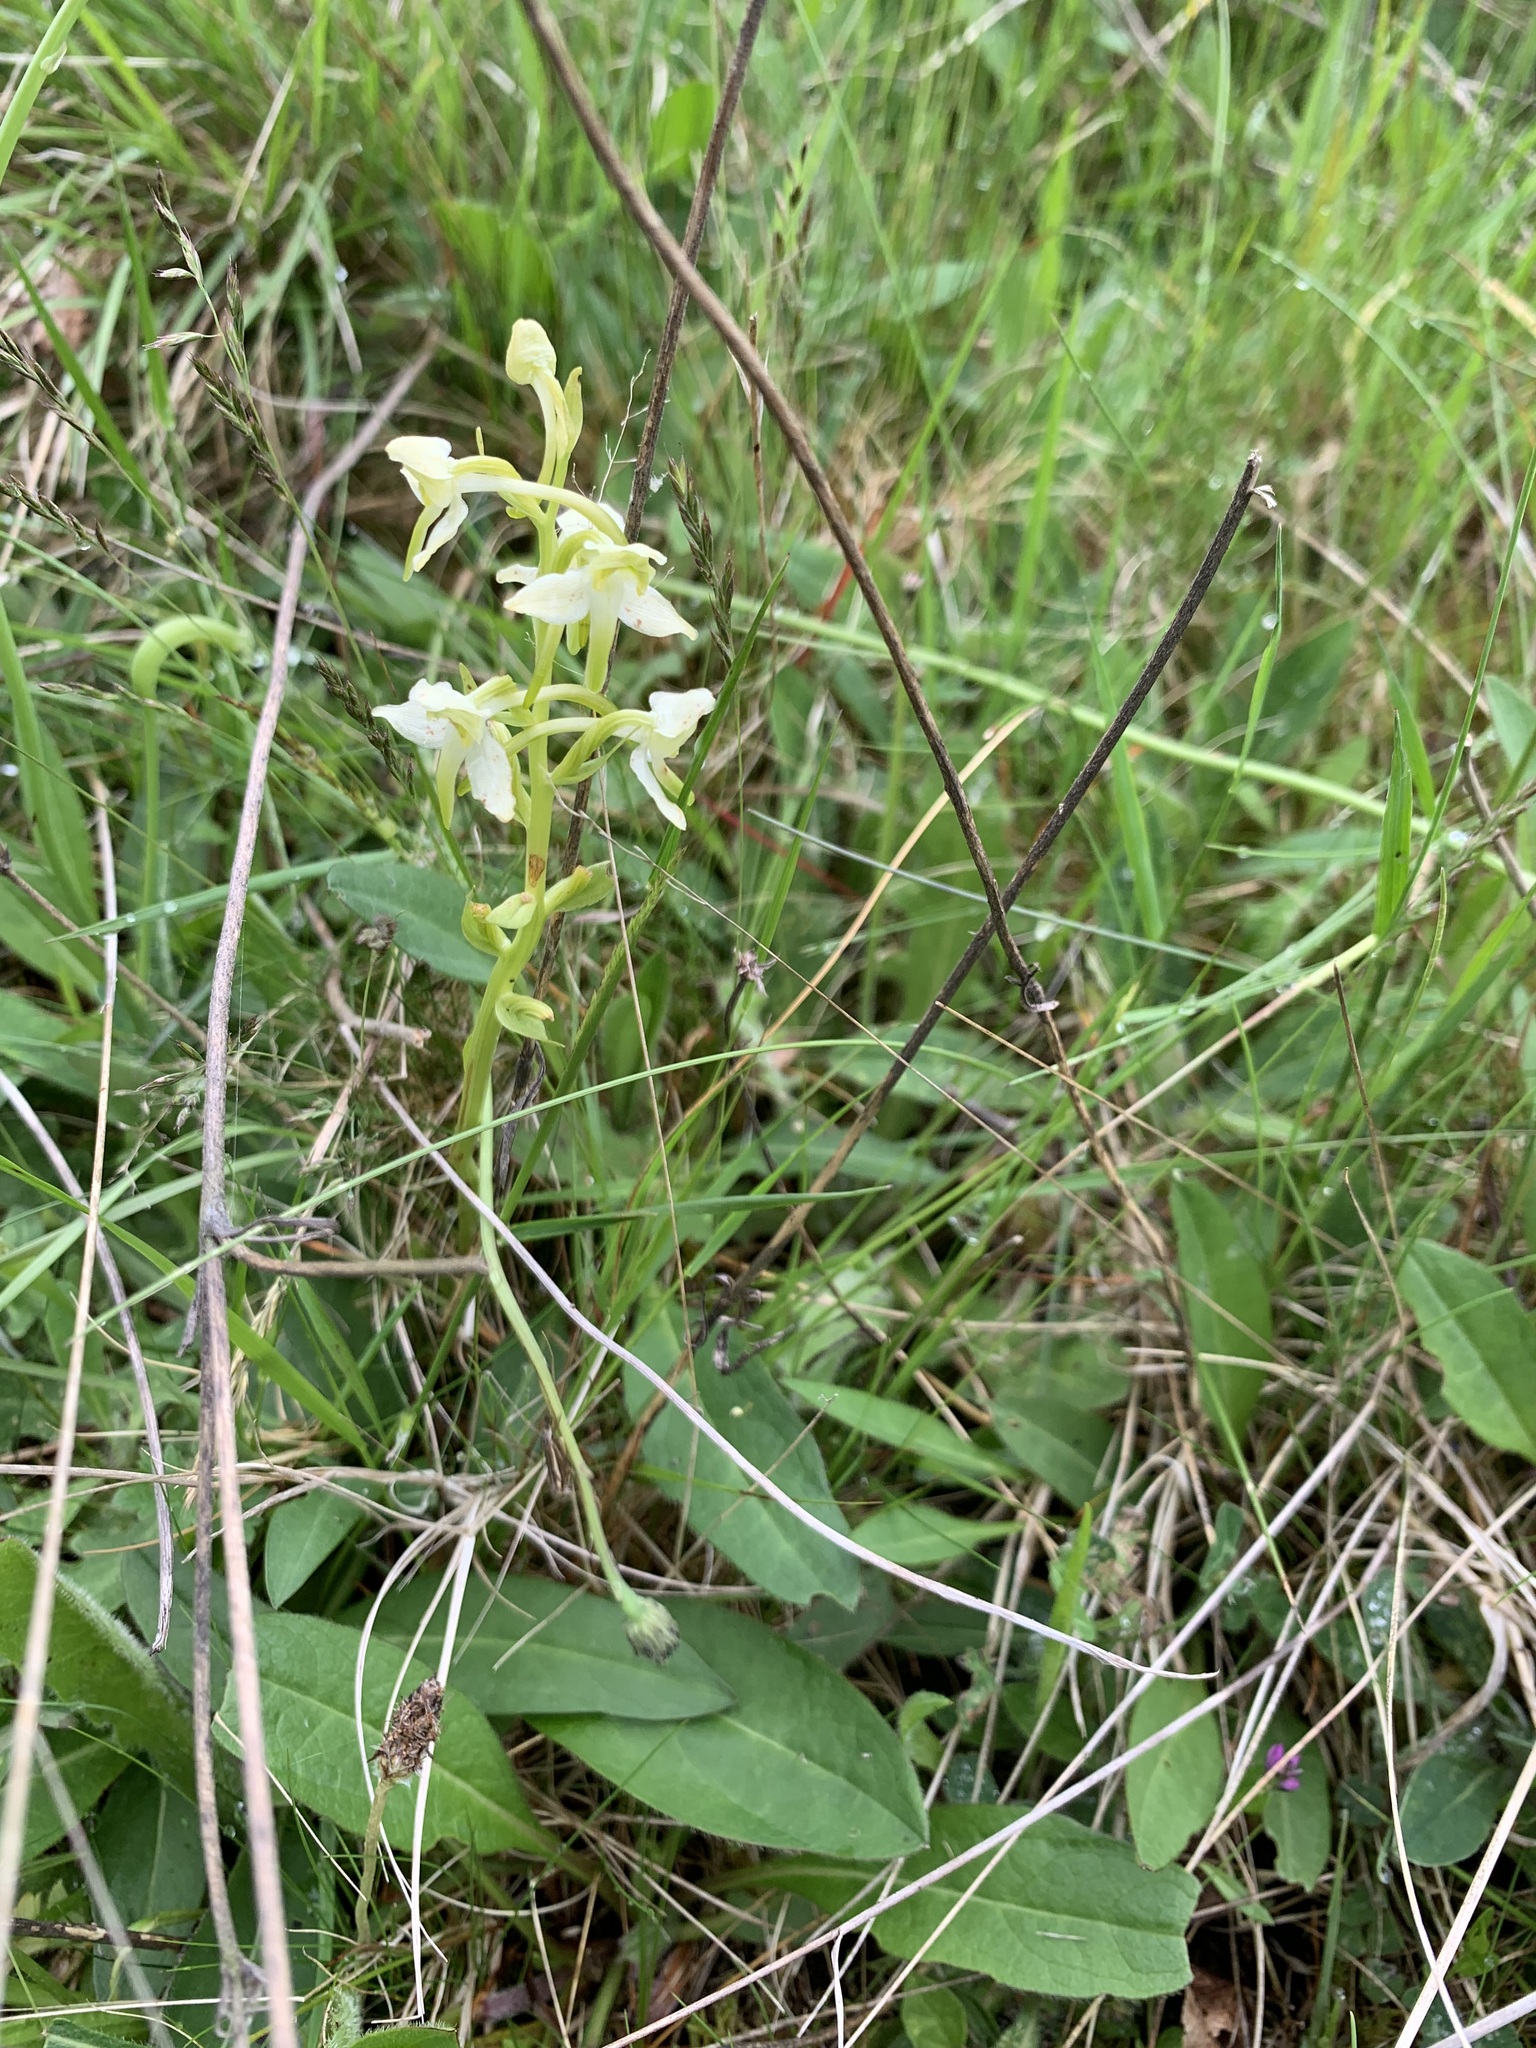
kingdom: Plantae
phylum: Tracheophyta
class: Liliopsida
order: Asparagales
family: Orchidaceae
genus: Platanthera
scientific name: Platanthera chlorantha
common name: Greater butterfly-orchid
